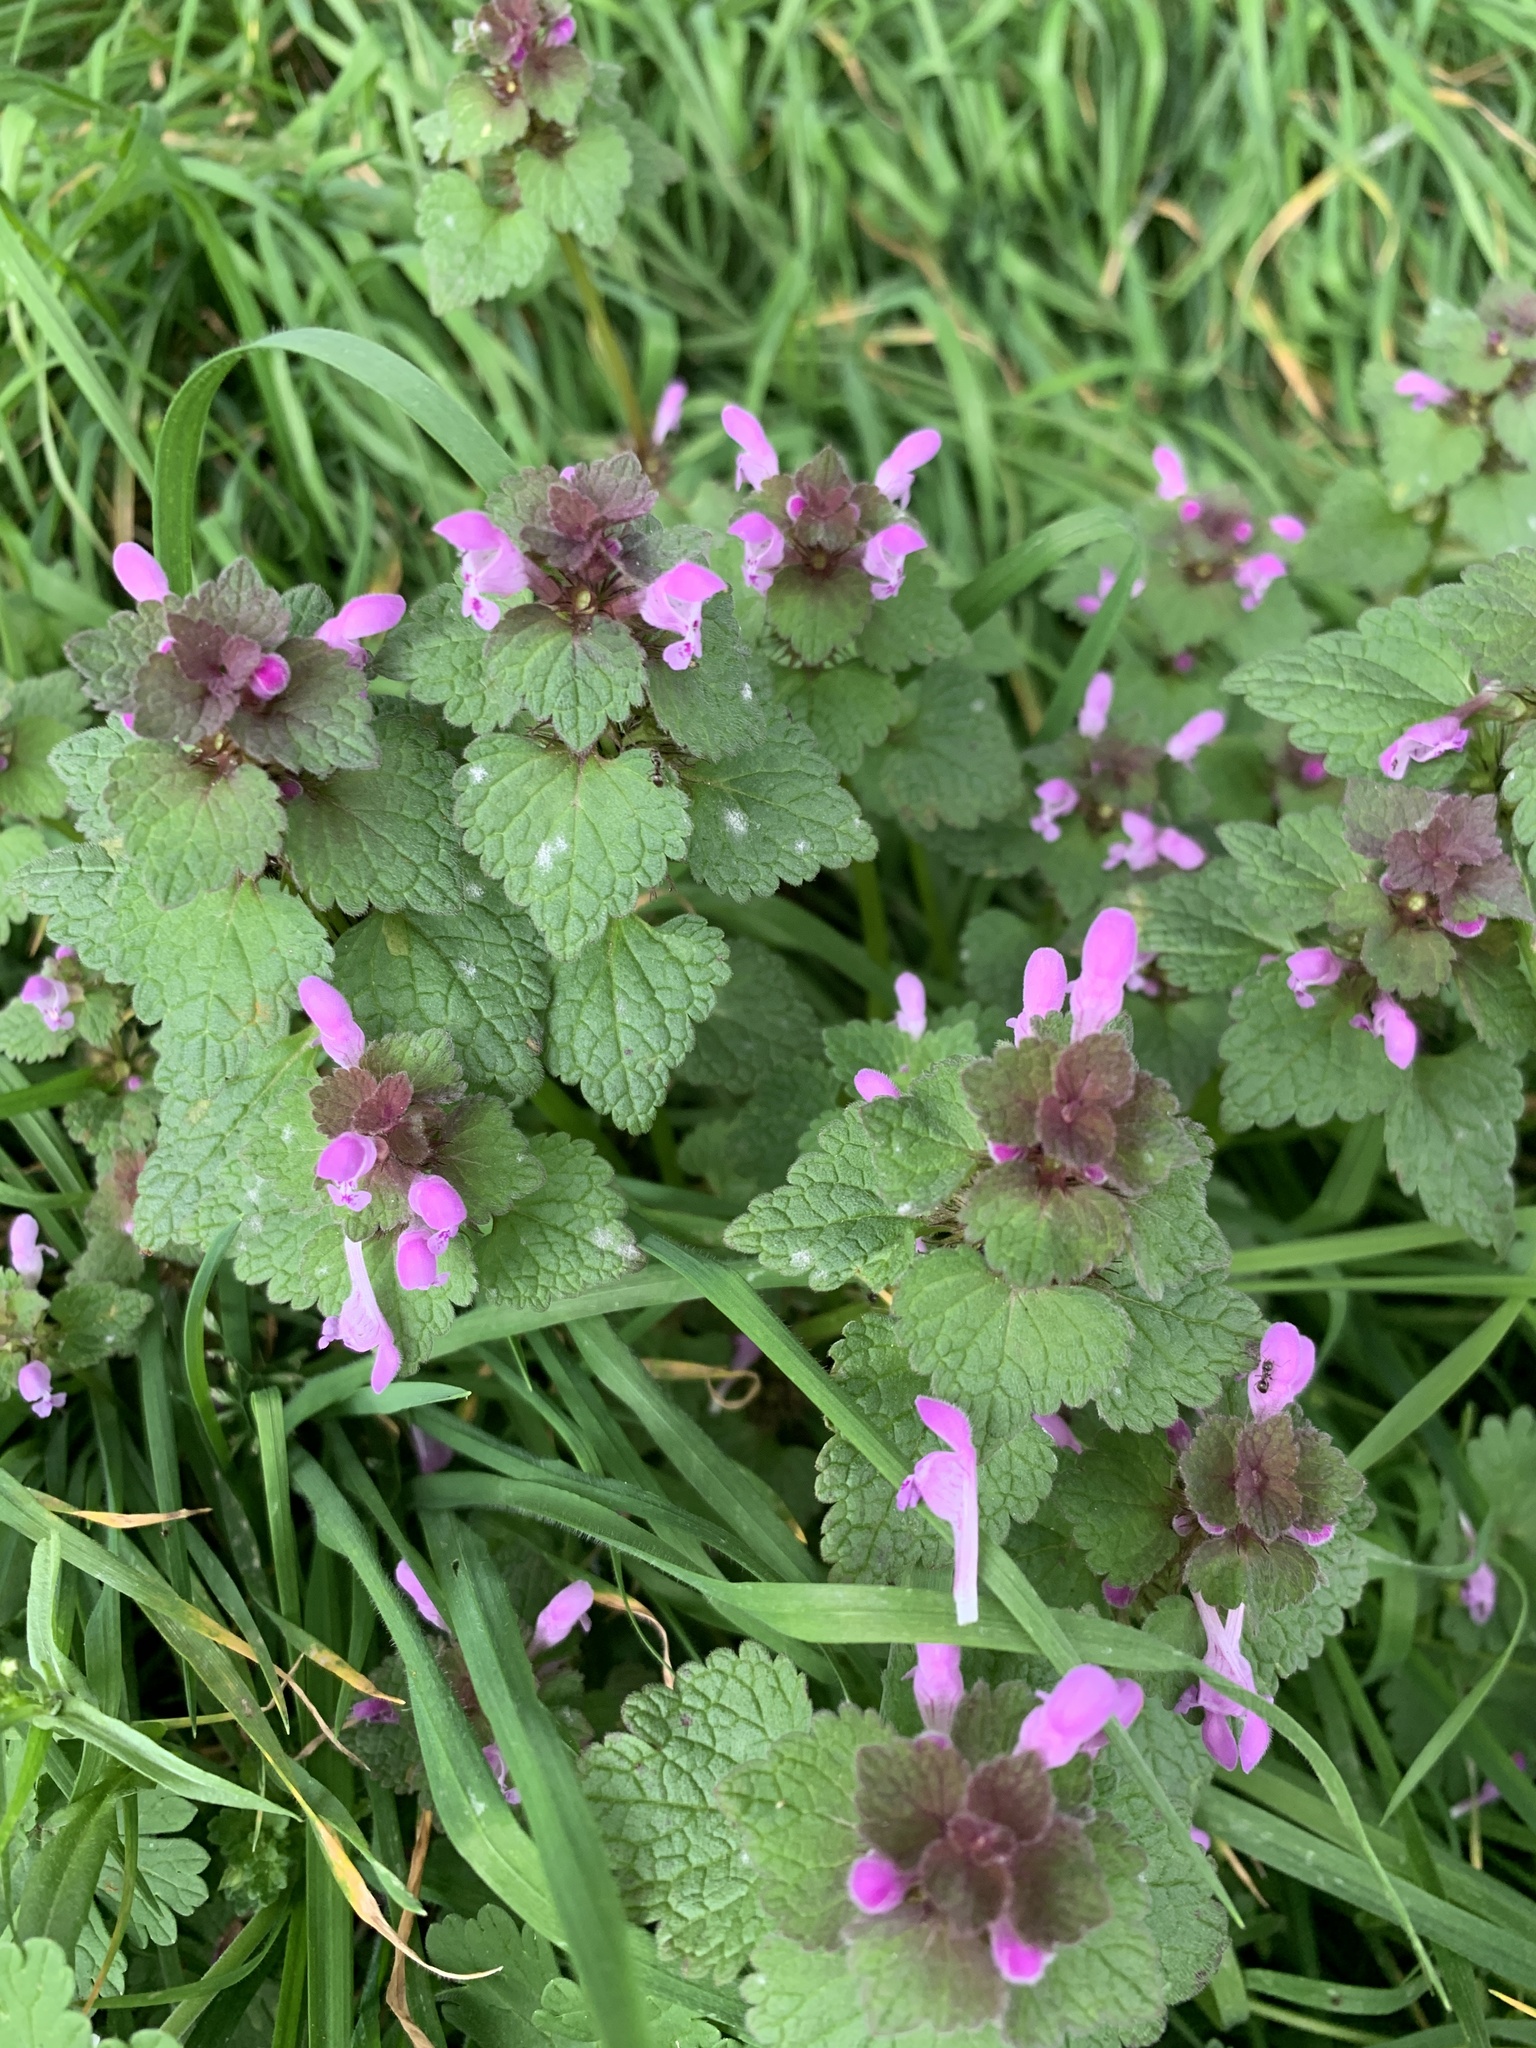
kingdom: Plantae
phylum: Tracheophyta
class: Magnoliopsida
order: Lamiales
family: Lamiaceae
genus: Lamium
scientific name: Lamium purpureum
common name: Red dead-nettle
